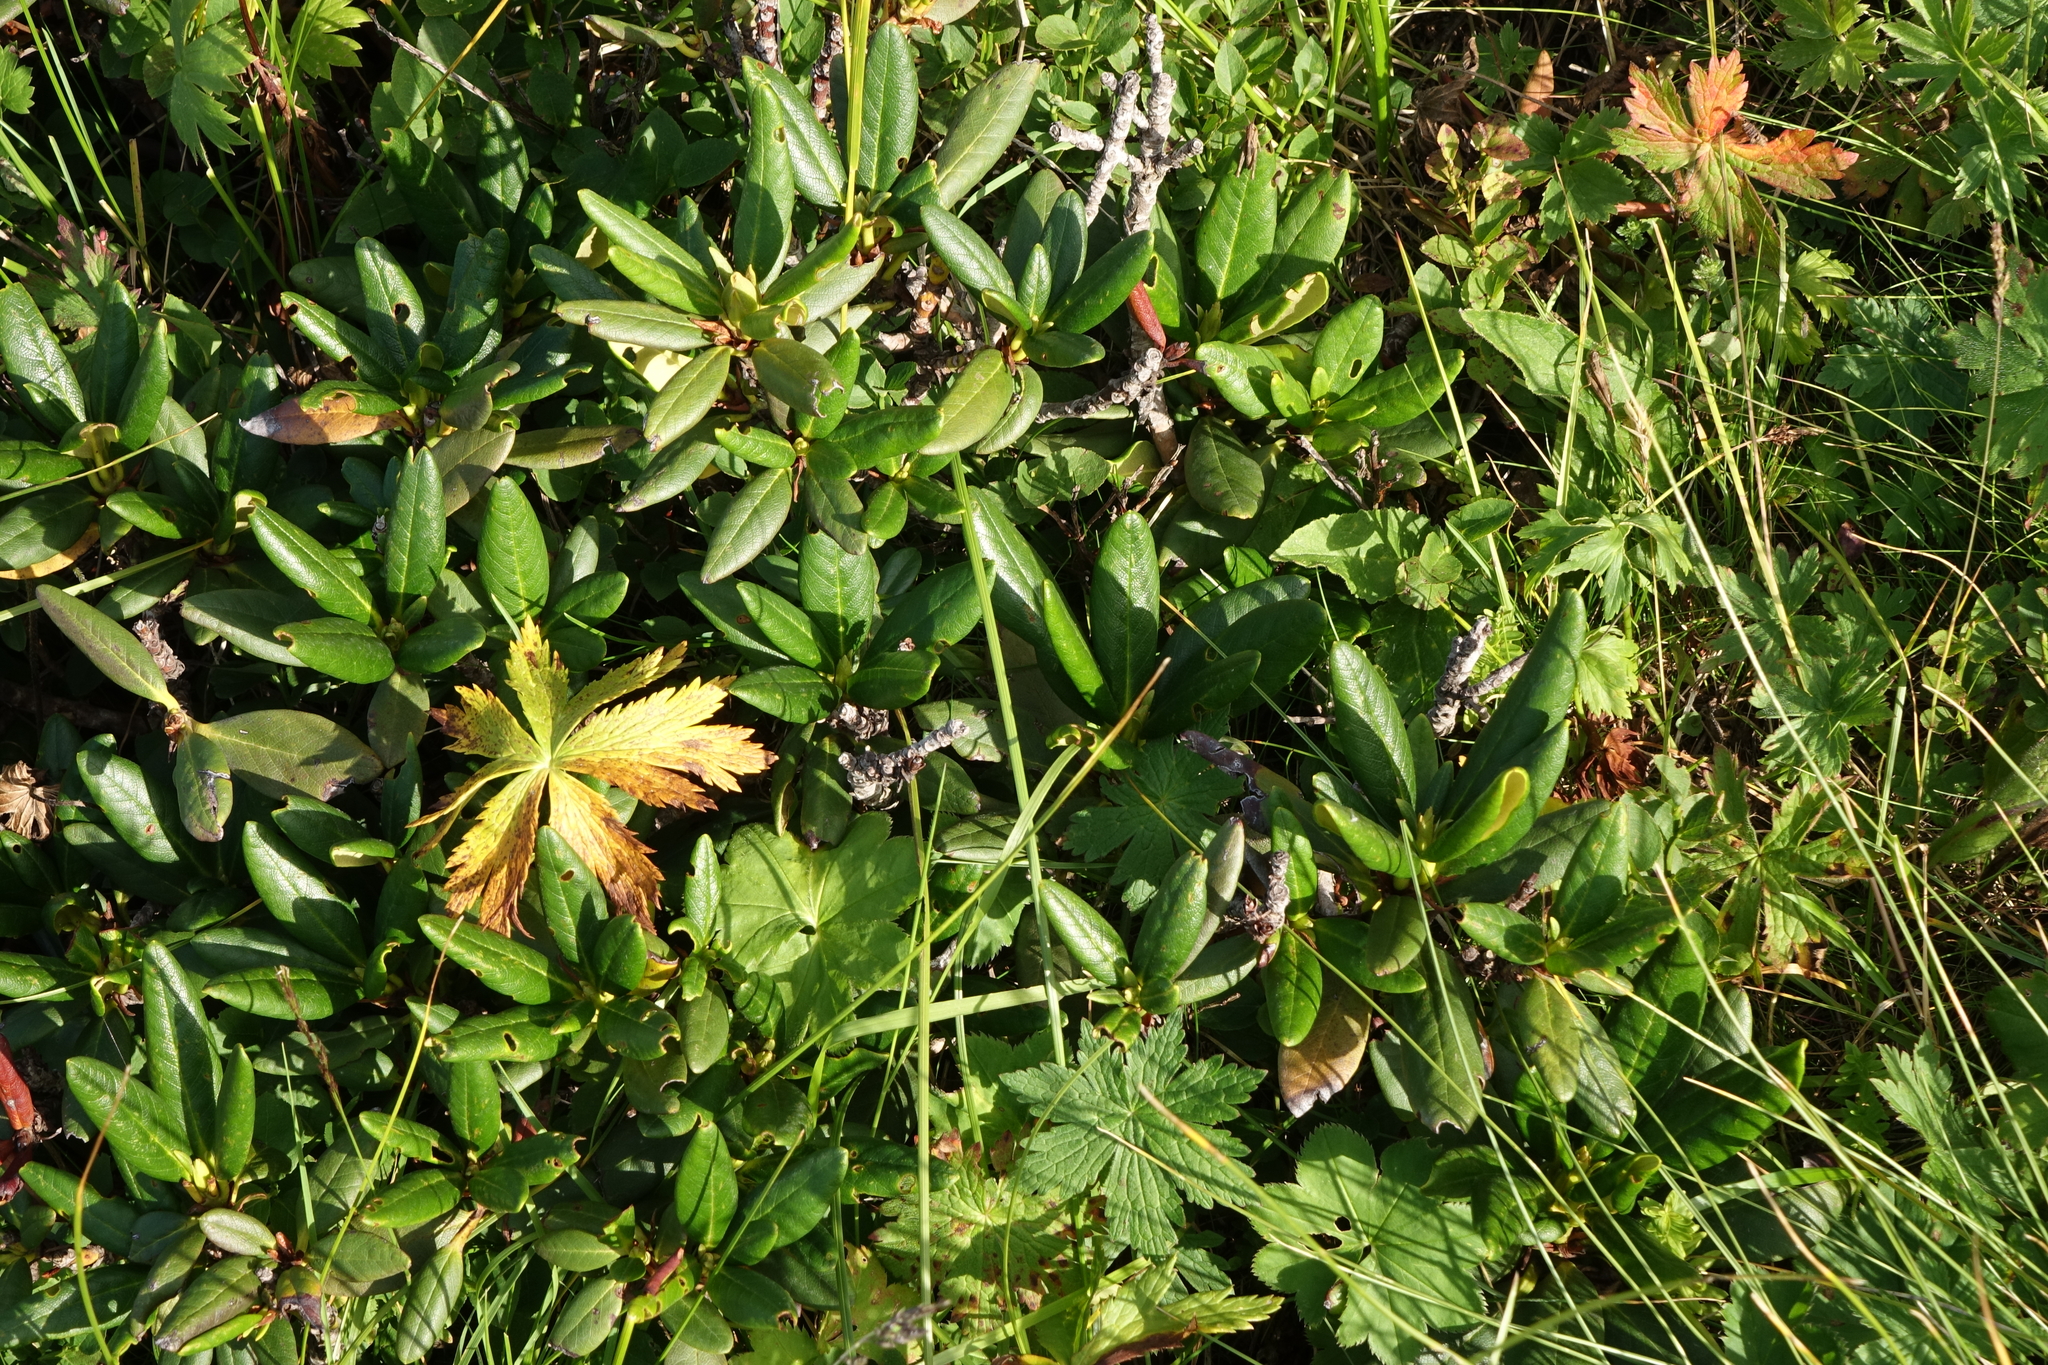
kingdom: Plantae
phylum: Tracheophyta
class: Magnoliopsida
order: Ericales
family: Ericaceae
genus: Rhododendron
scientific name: Rhododendron caucasicum
